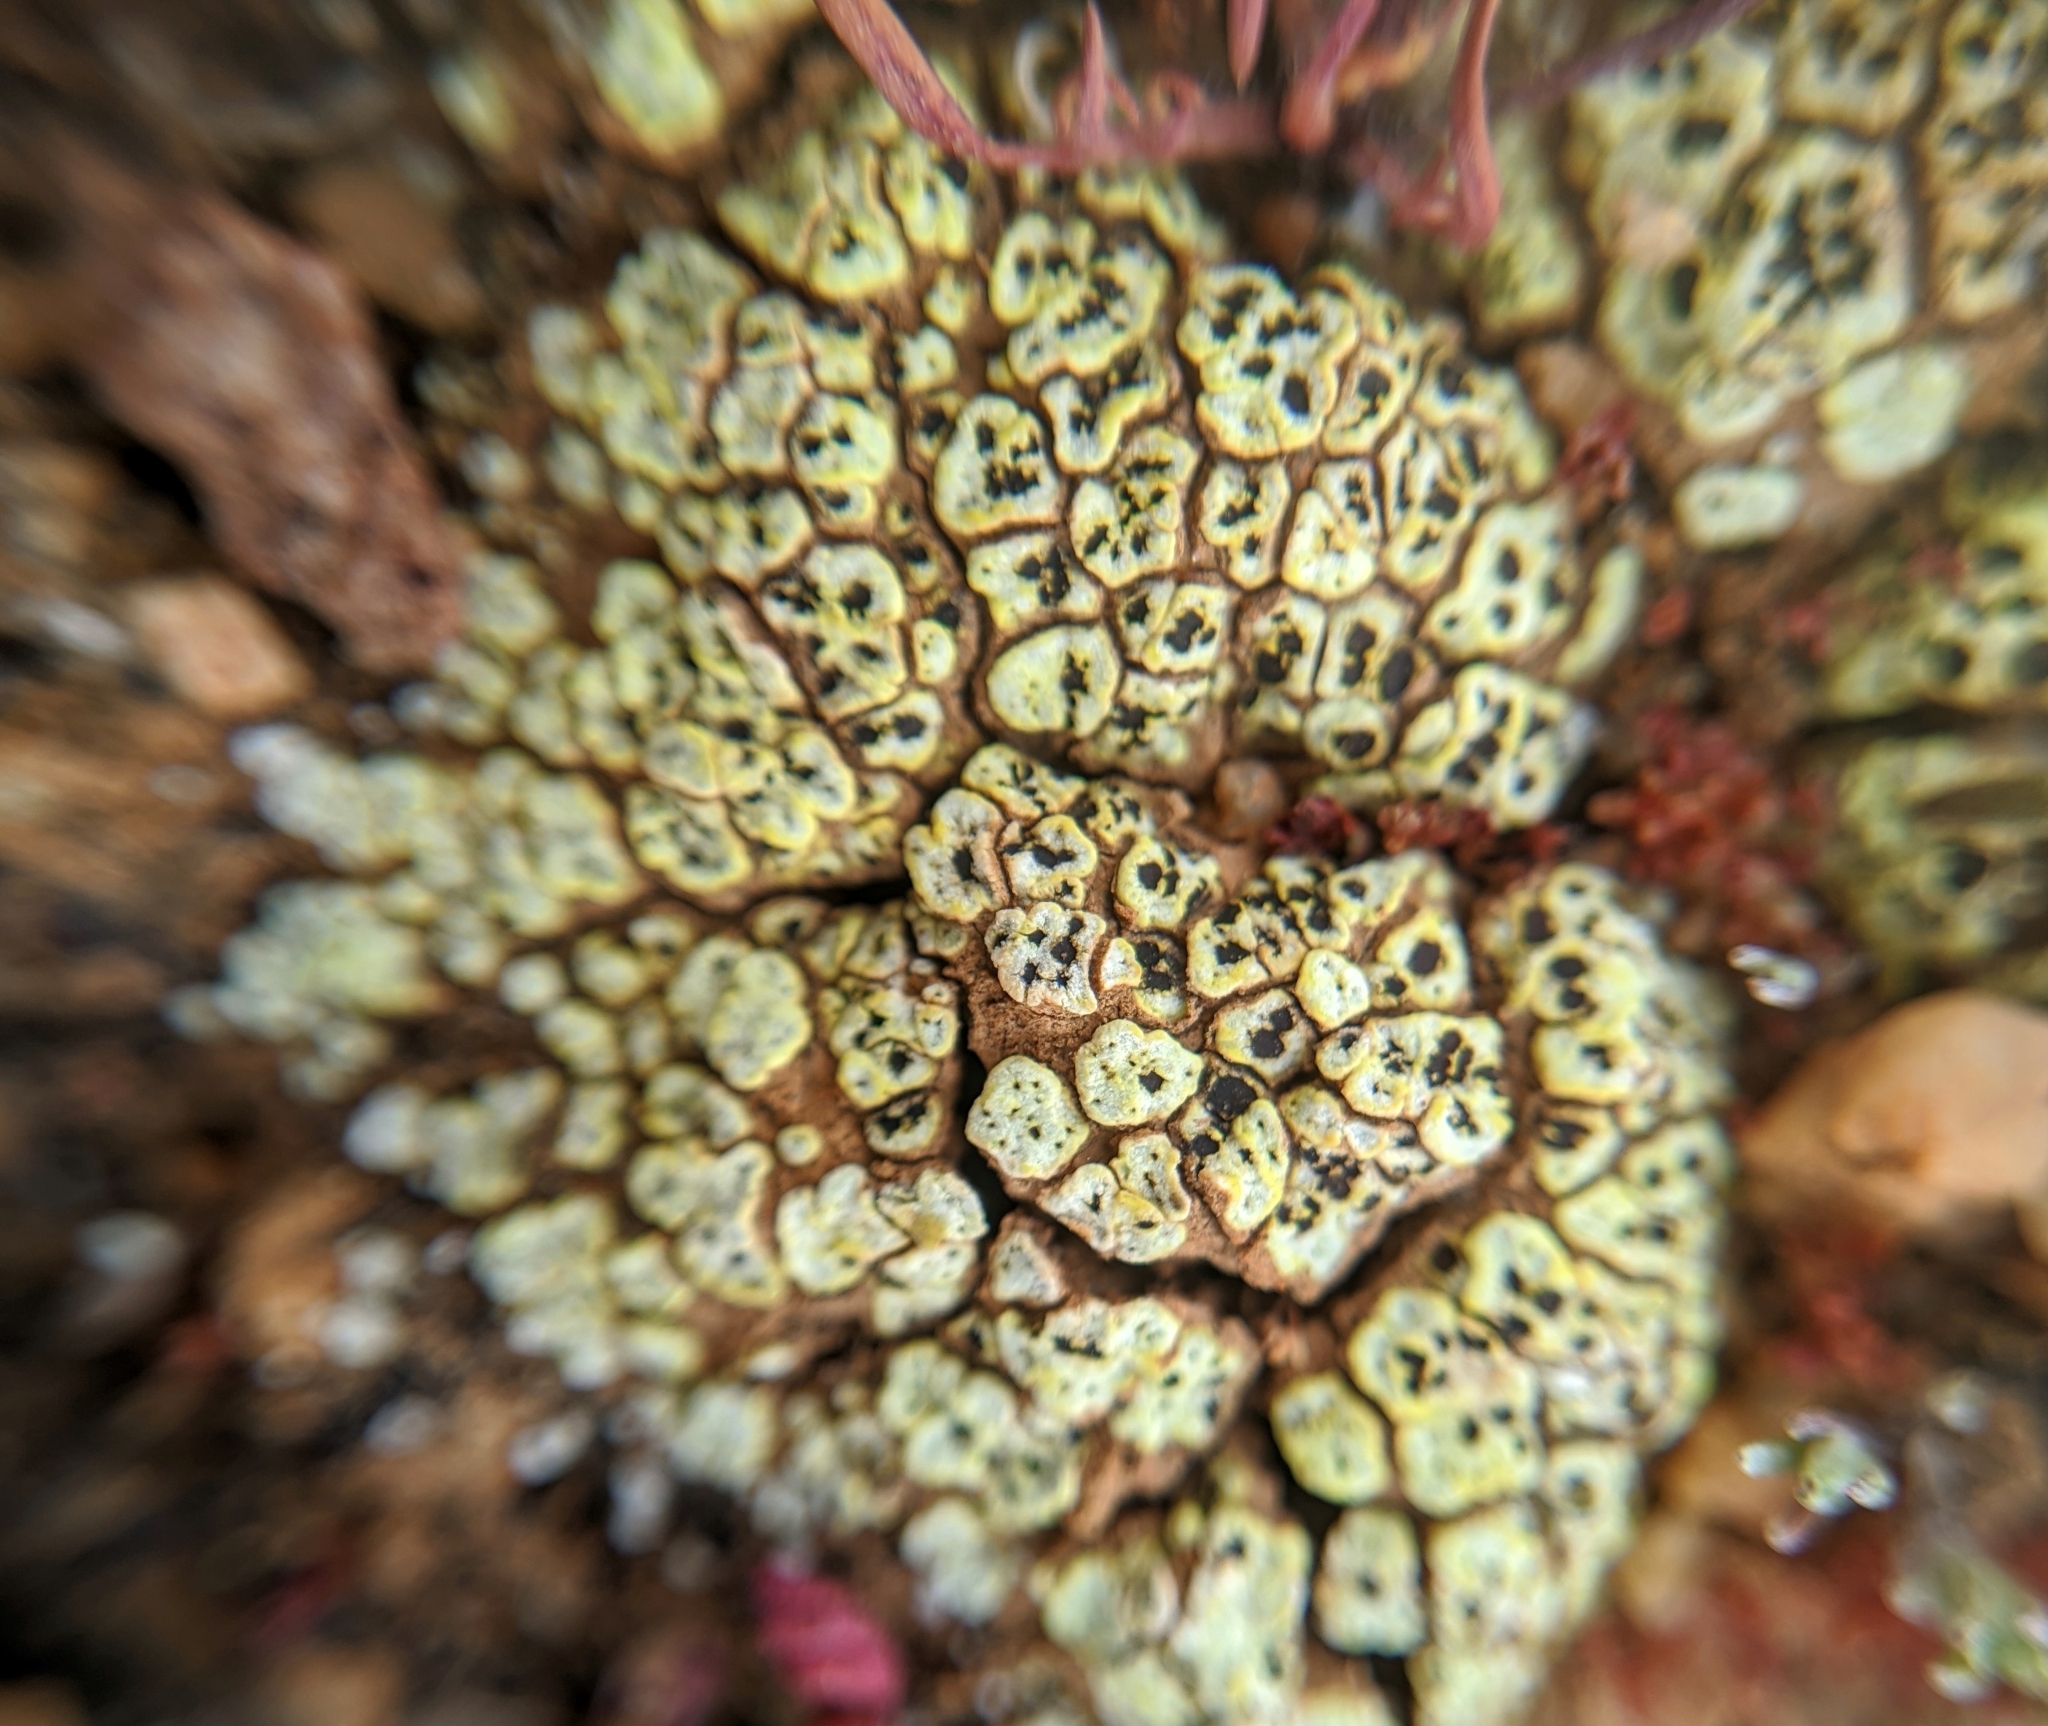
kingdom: Fungi
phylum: Ascomycota
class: Lecanoromycetes
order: Acarosporales
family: Acarosporaceae
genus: Acarospora
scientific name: Acarospora schleicheri
